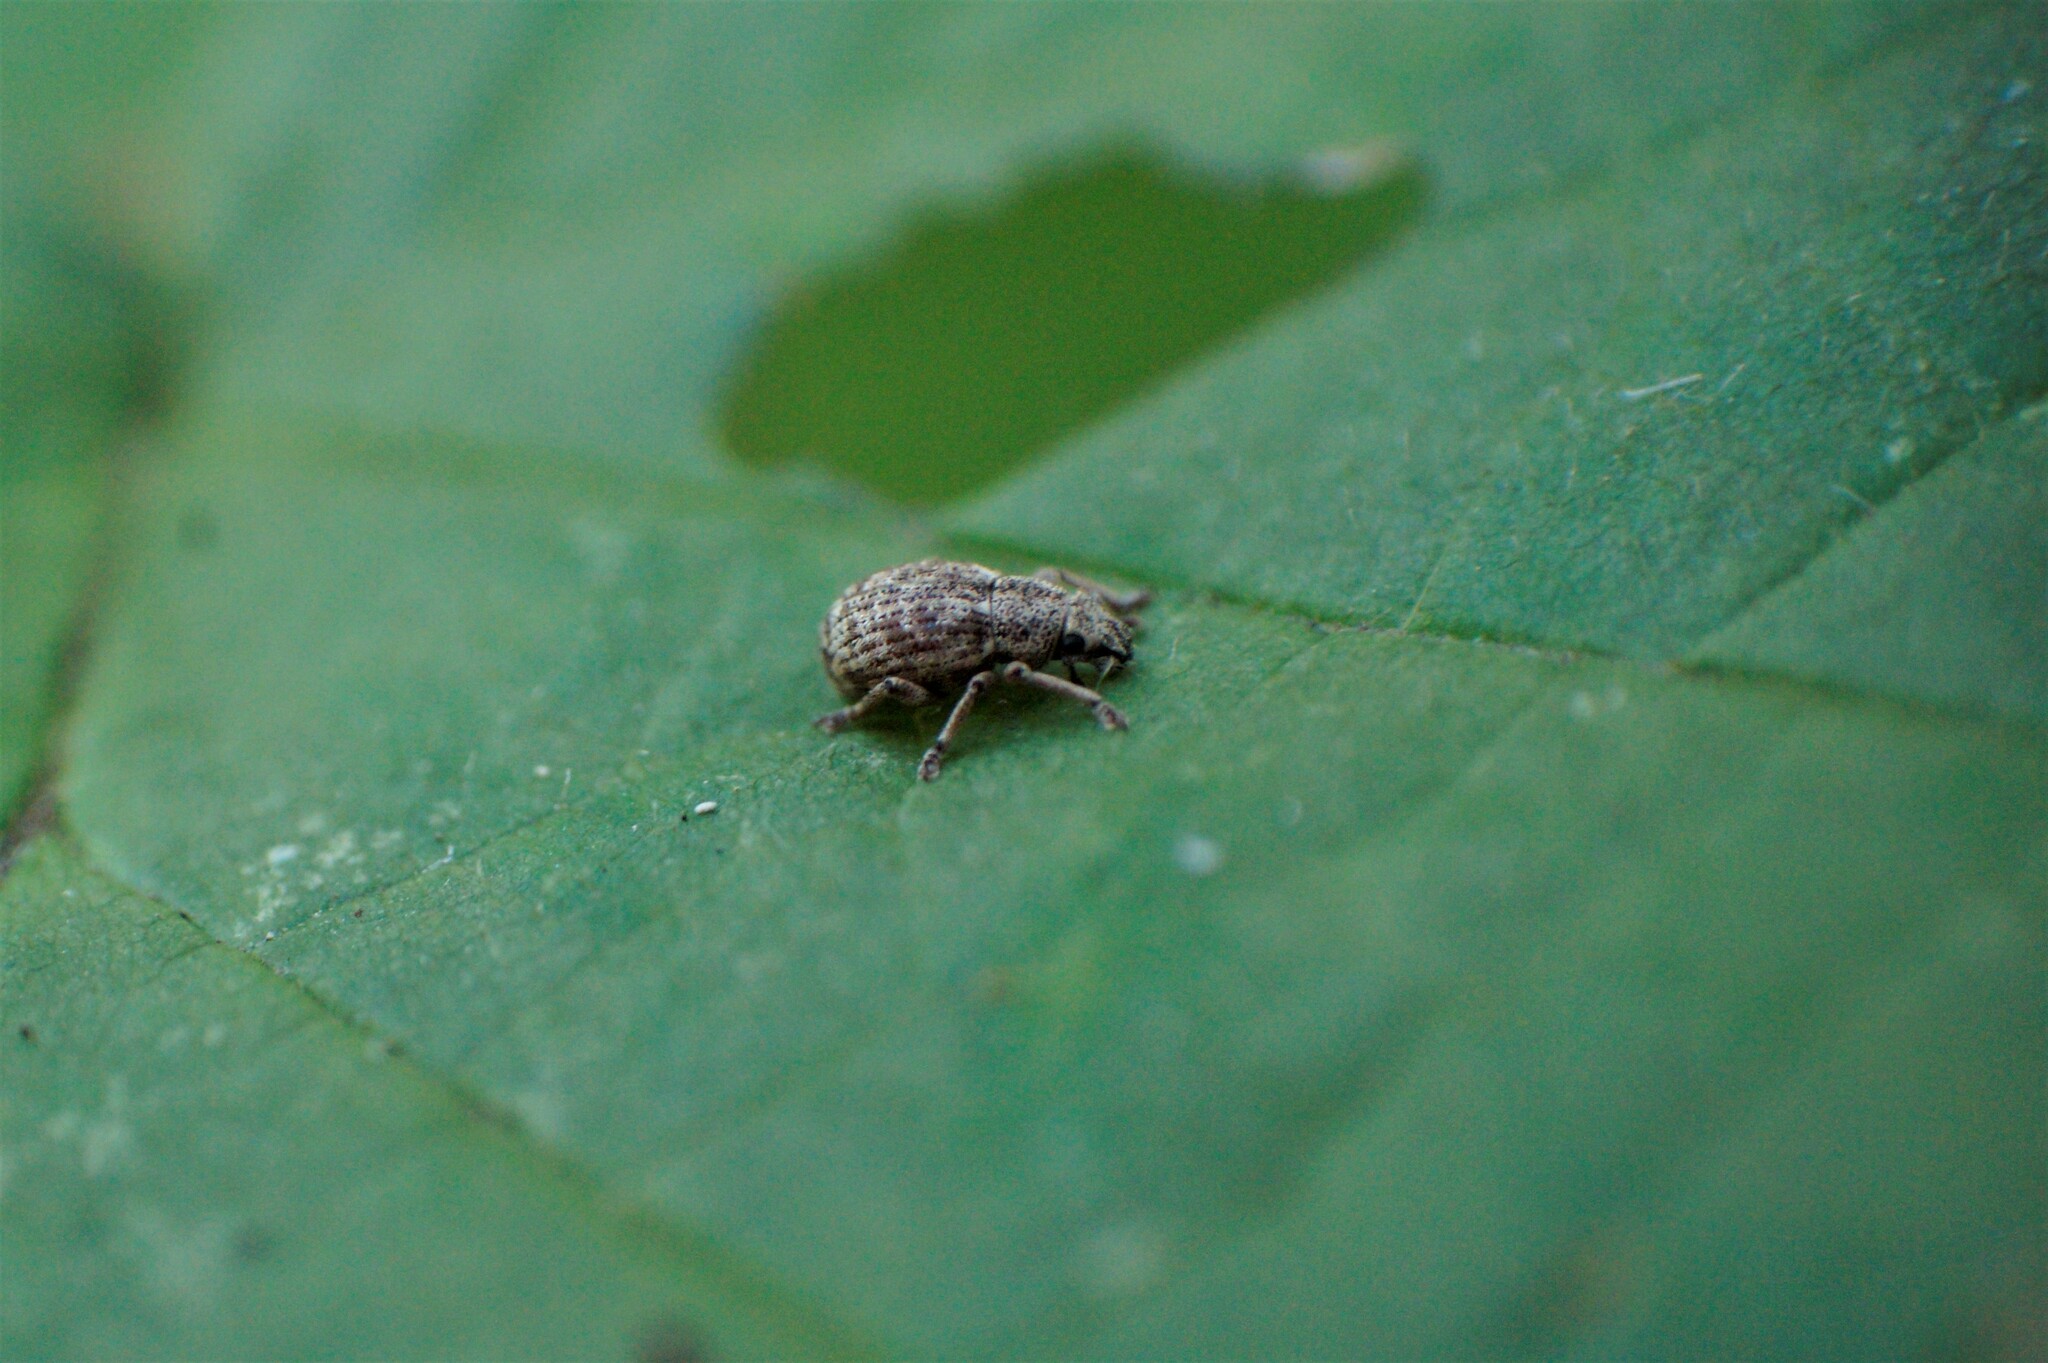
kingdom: Animalia
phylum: Arthropoda
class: Insecta
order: Coleoptera
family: Curculionidae
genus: Strophosoma
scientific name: Strophosoma capitatum
